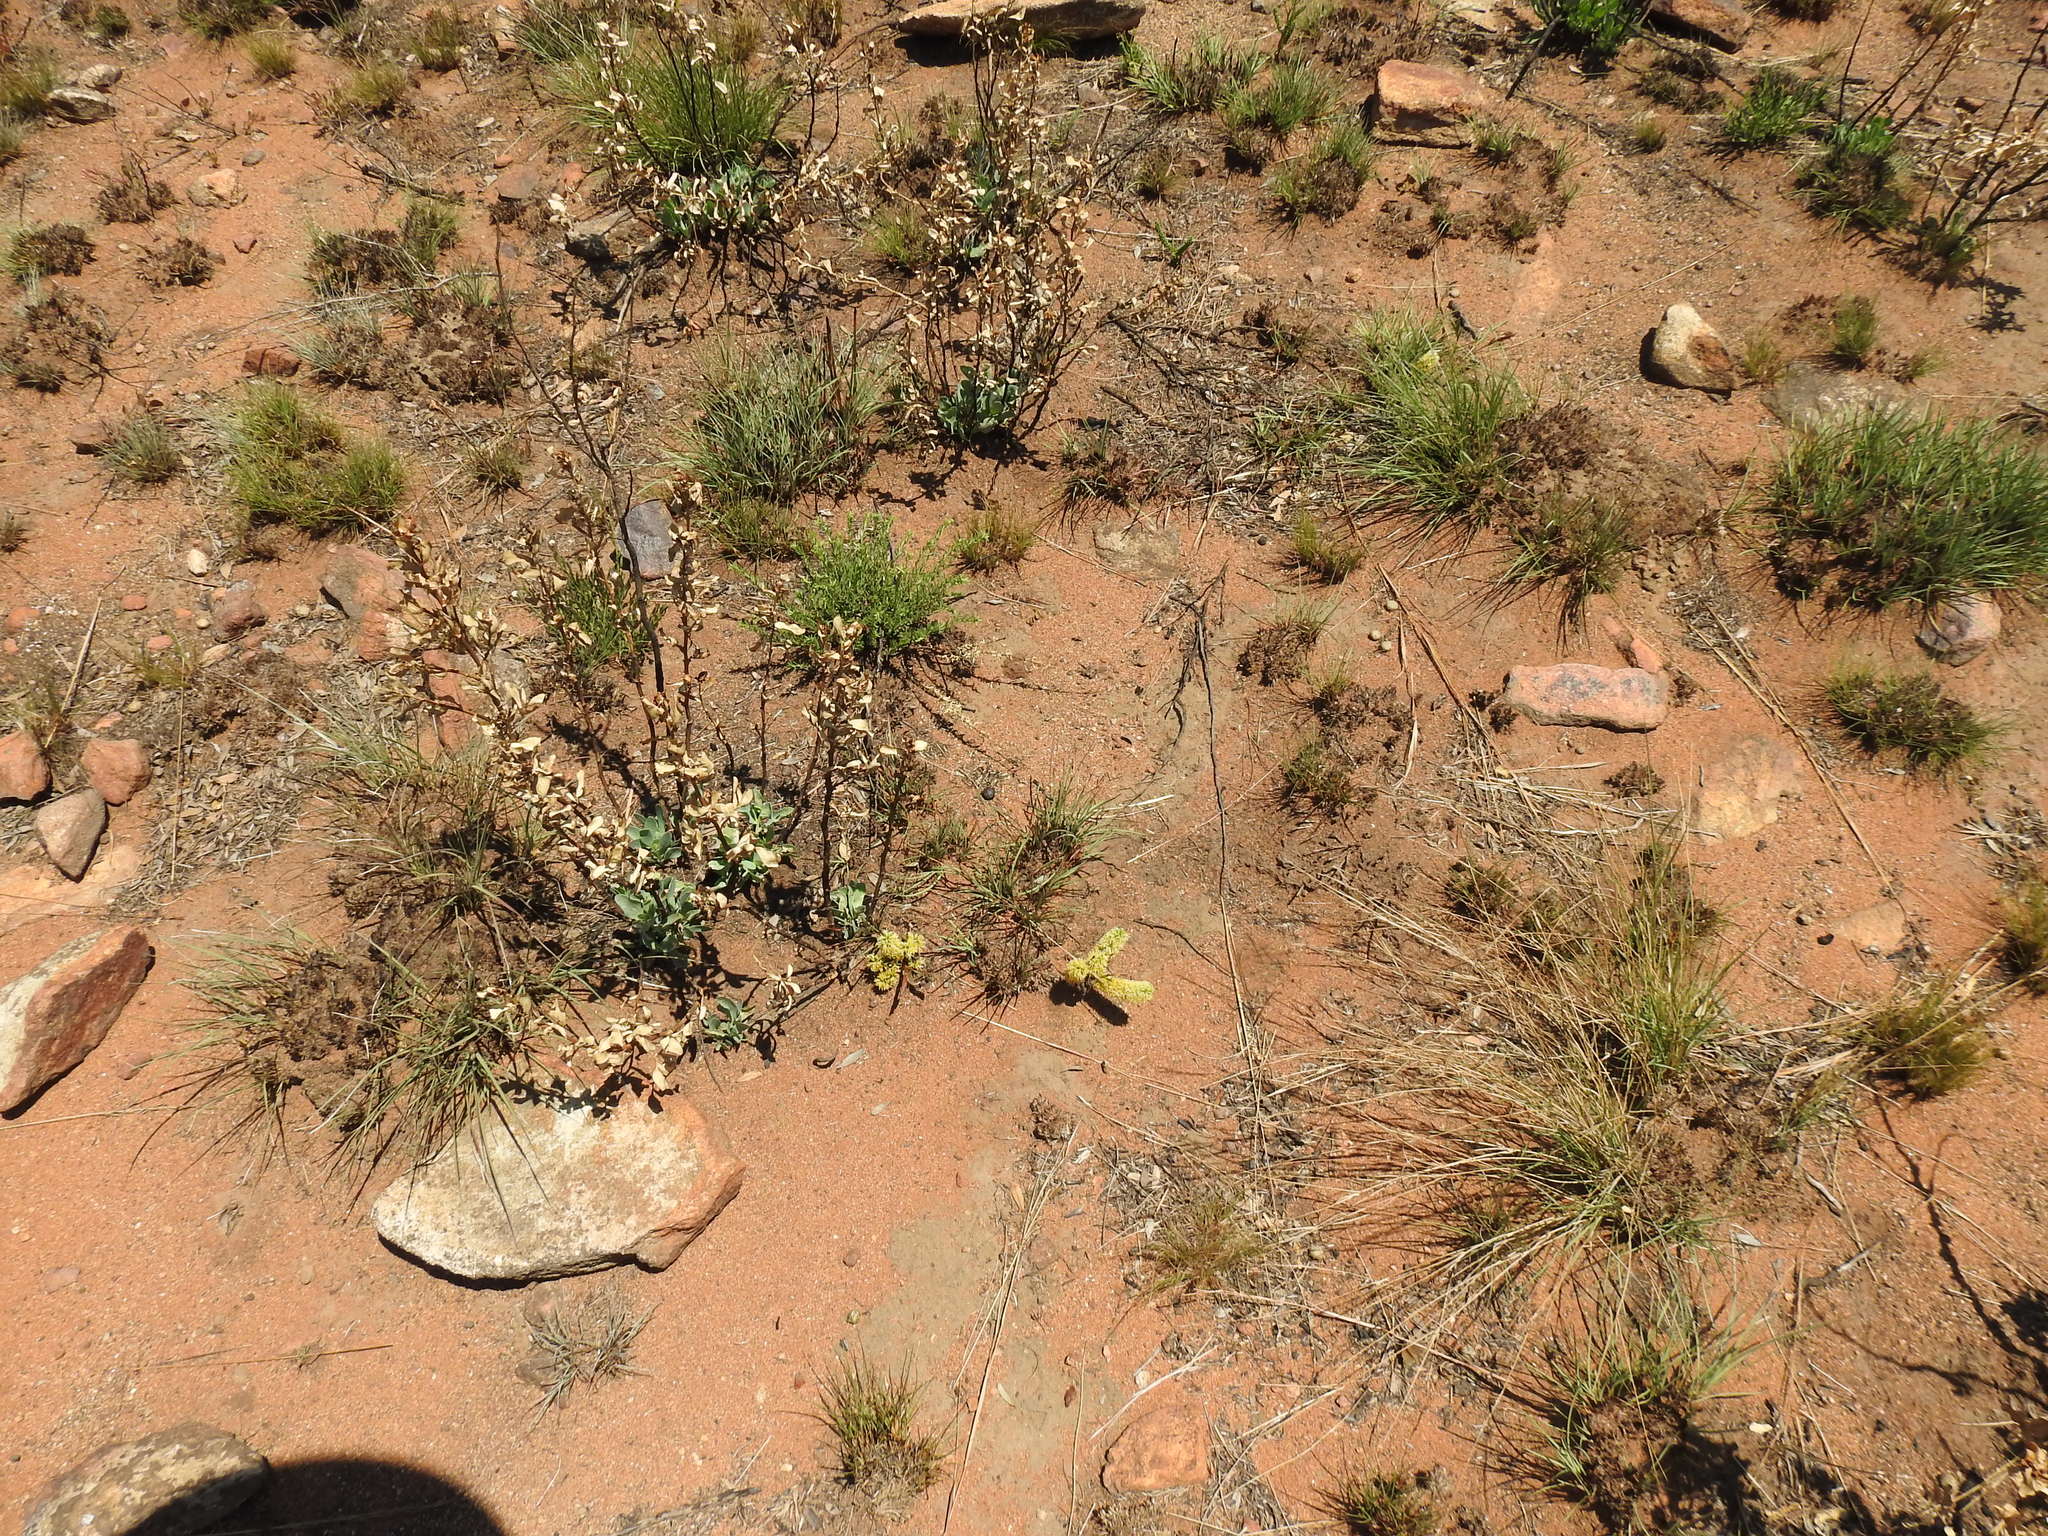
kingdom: Plantae
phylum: Tracheophyta
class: Magnoliopsida
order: Fabales
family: Fabaceae
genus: Elephantorrhiza
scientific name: Elephantorrhiza elephantina
